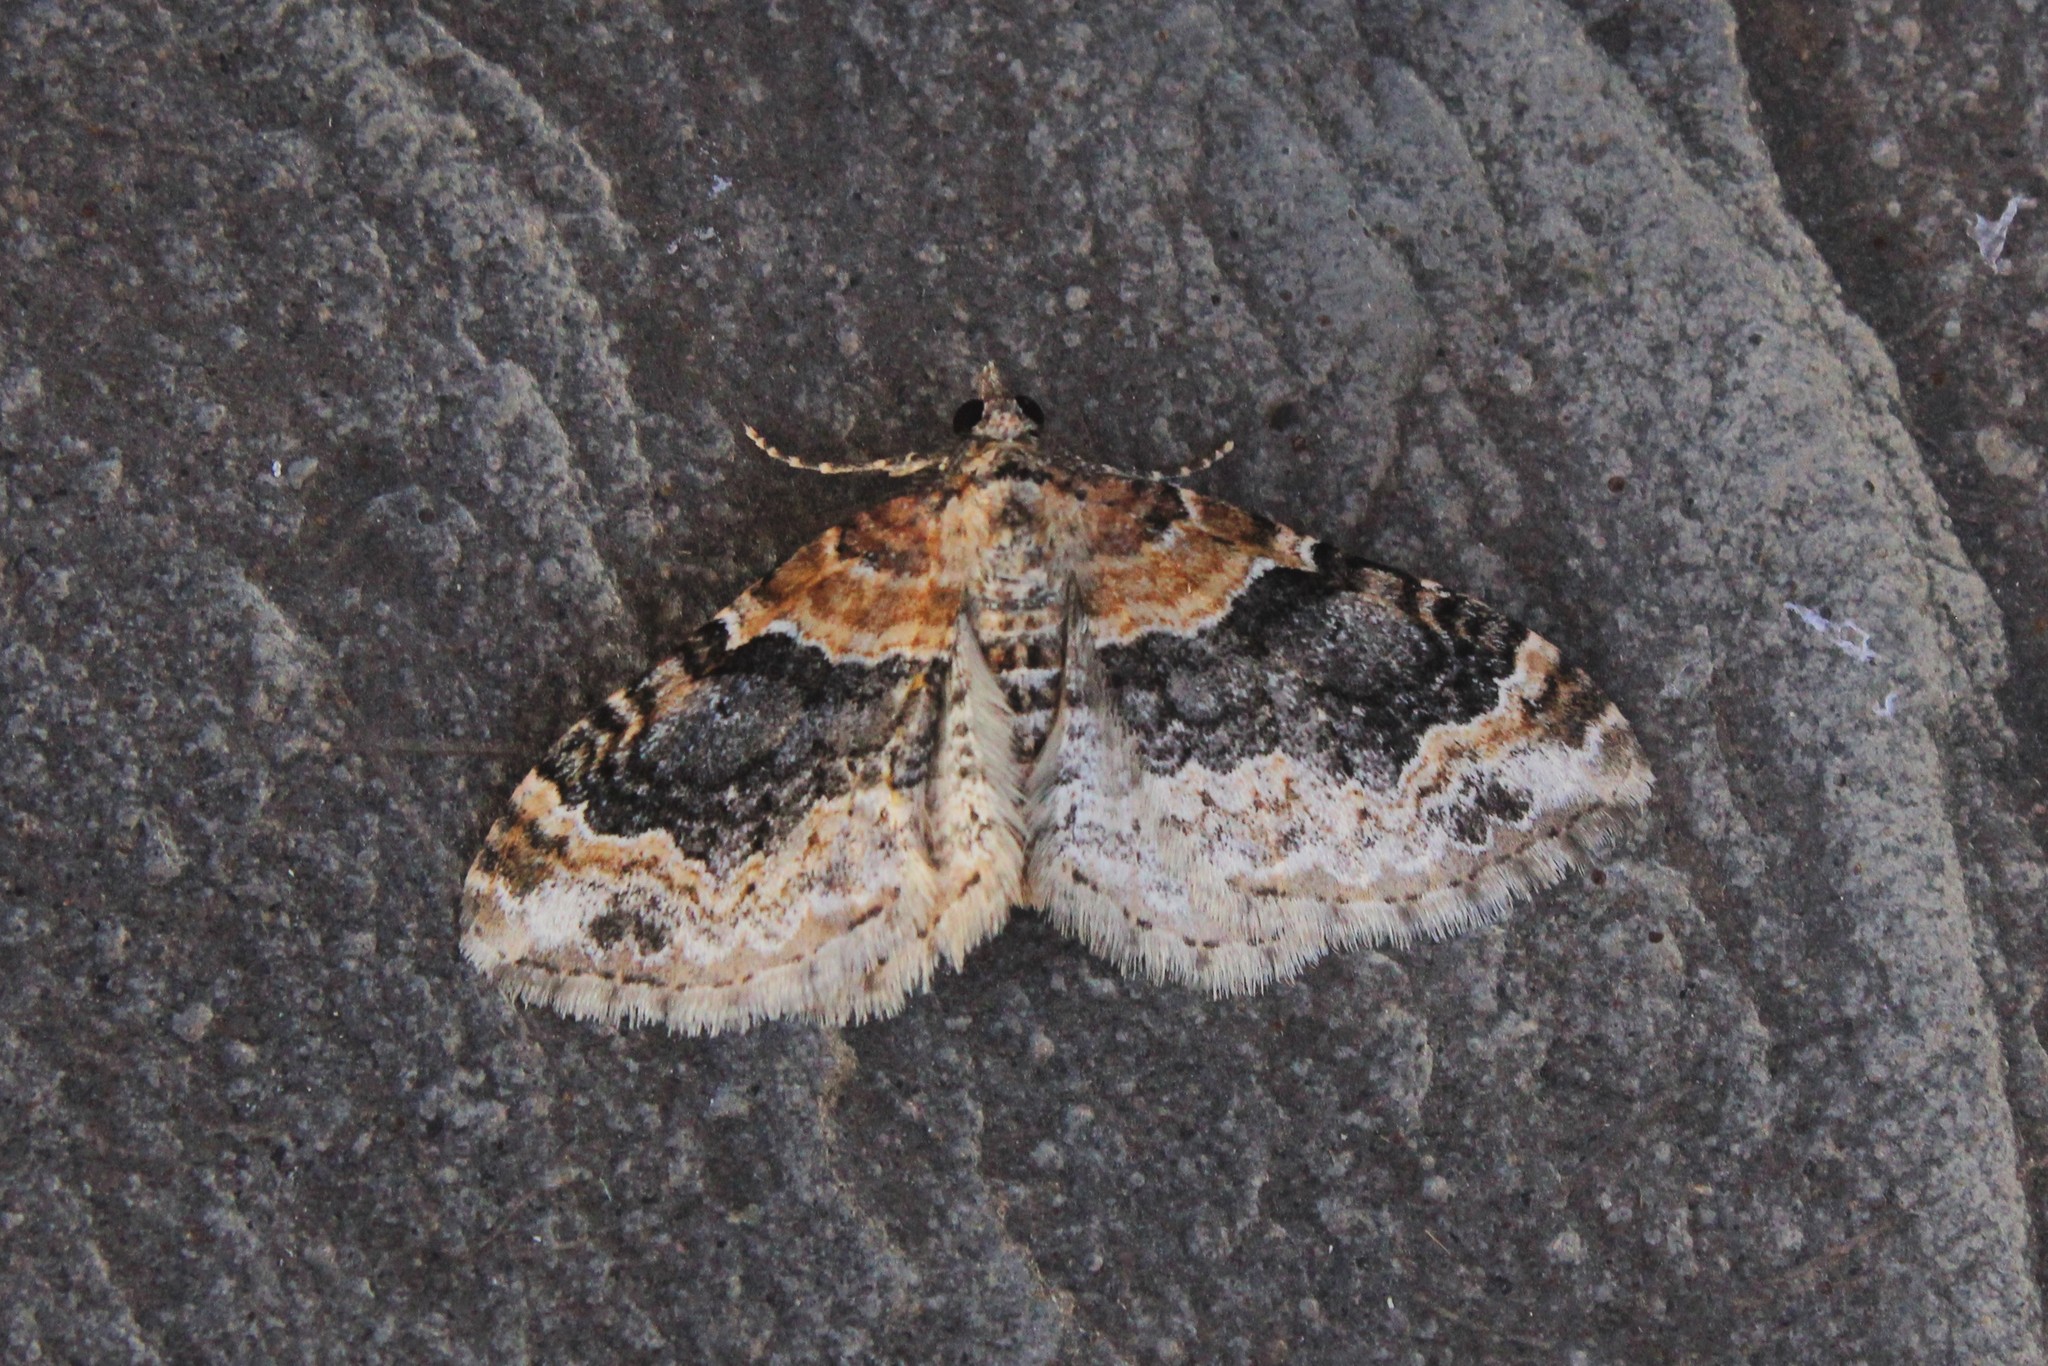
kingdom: Animalia
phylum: Arthropoda
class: Insecta
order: Lepidoptera
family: Geometridae
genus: Xanthorhoe
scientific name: Xanthorhoe ferrugata
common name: Dark-barred twin-spot carpet
